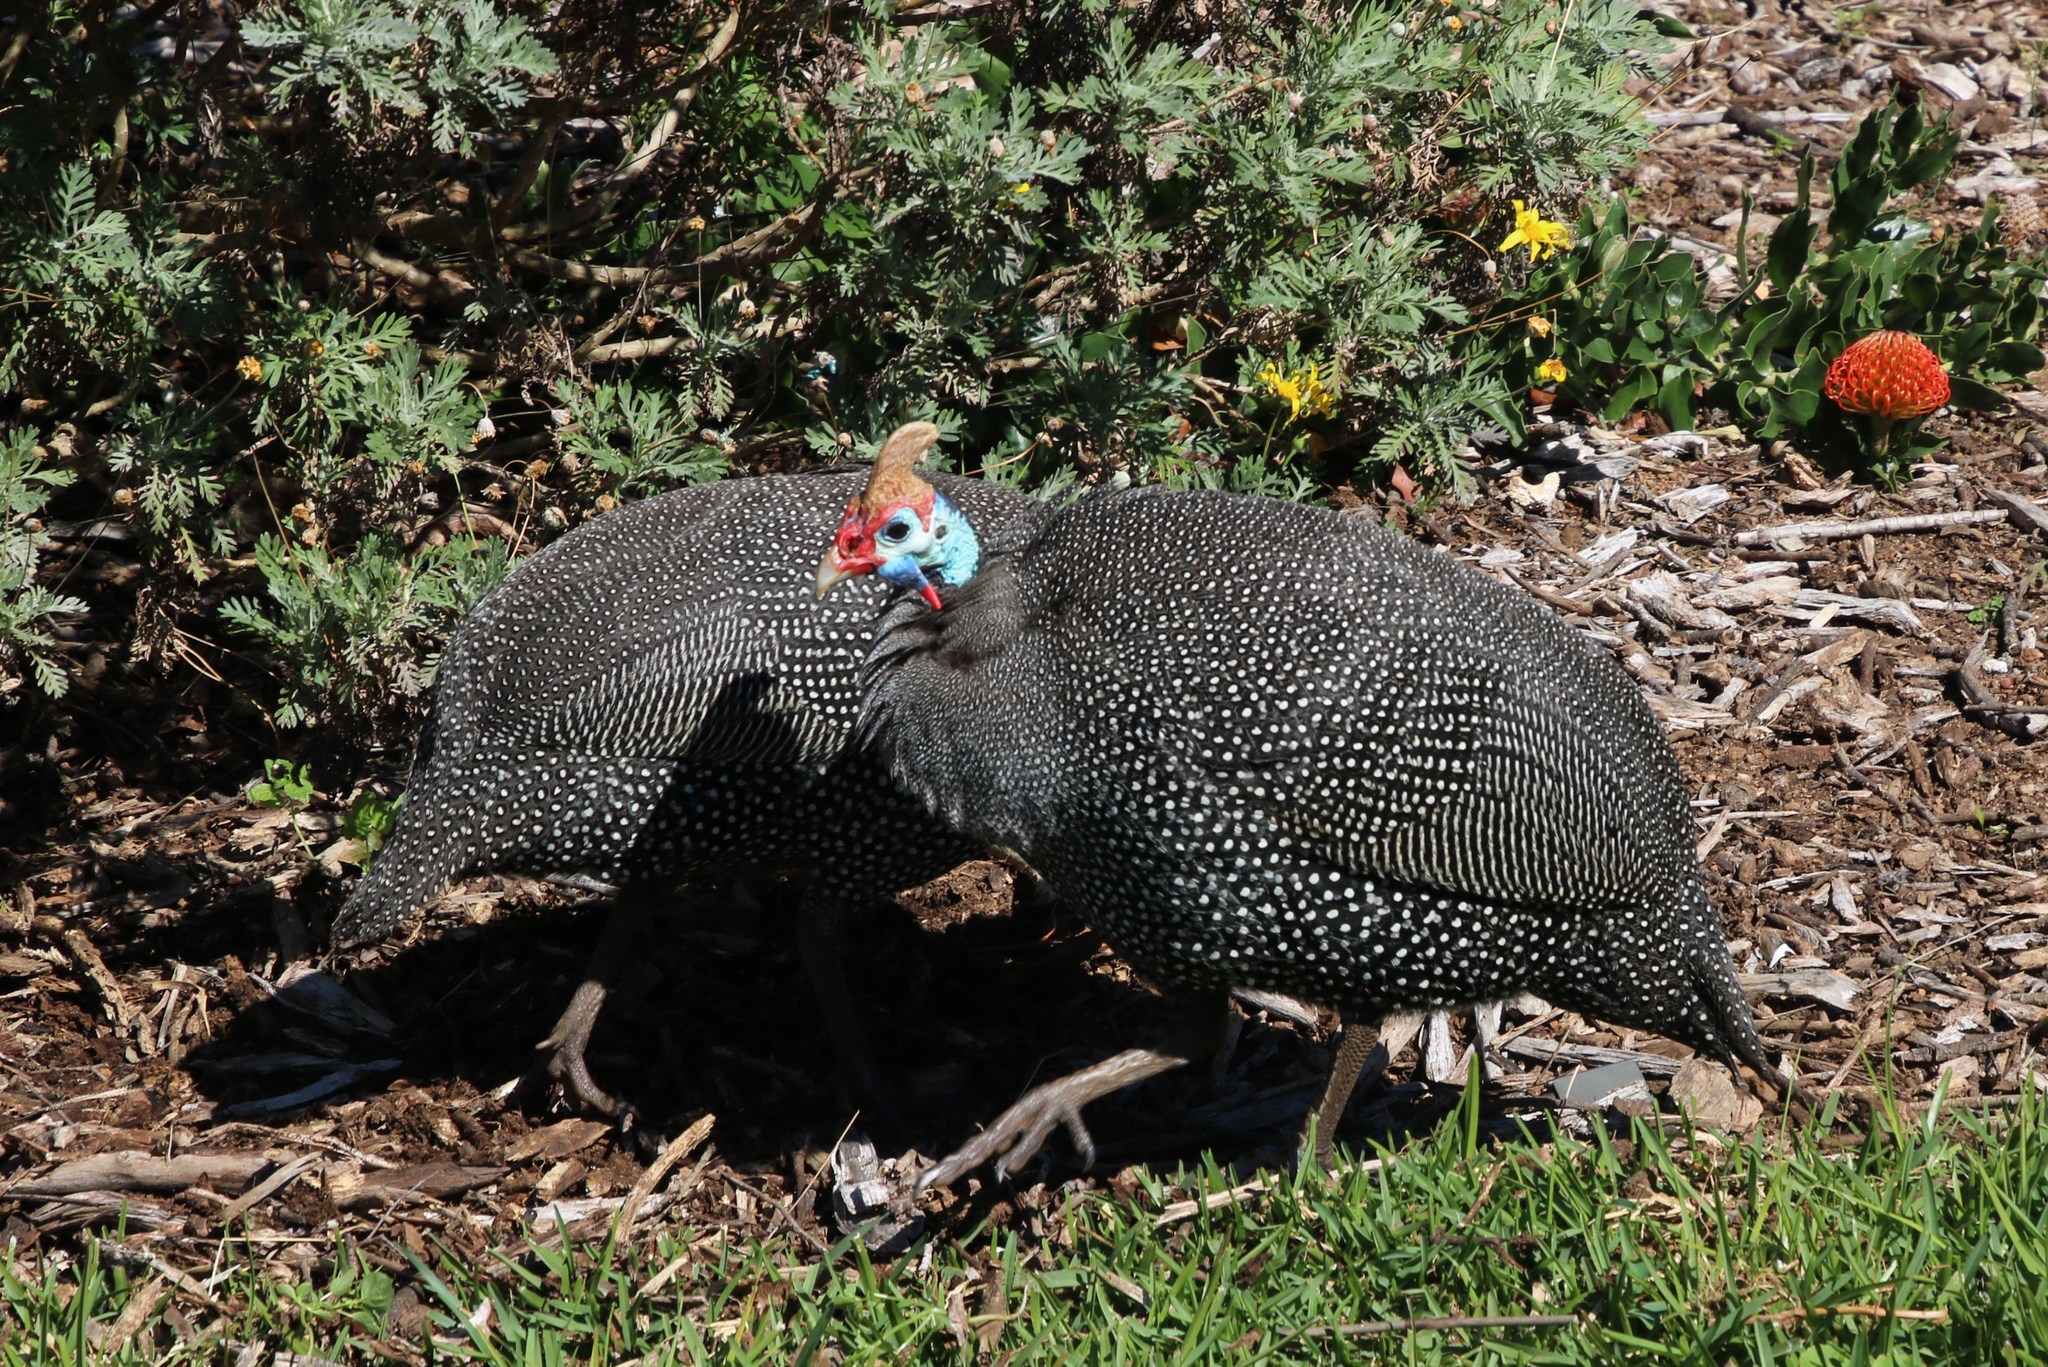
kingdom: Animalia
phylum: Chordata
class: Aves
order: Galliformes
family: Numididae
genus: Numida
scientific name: Numida meleagris
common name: Helmeted guineafowl
